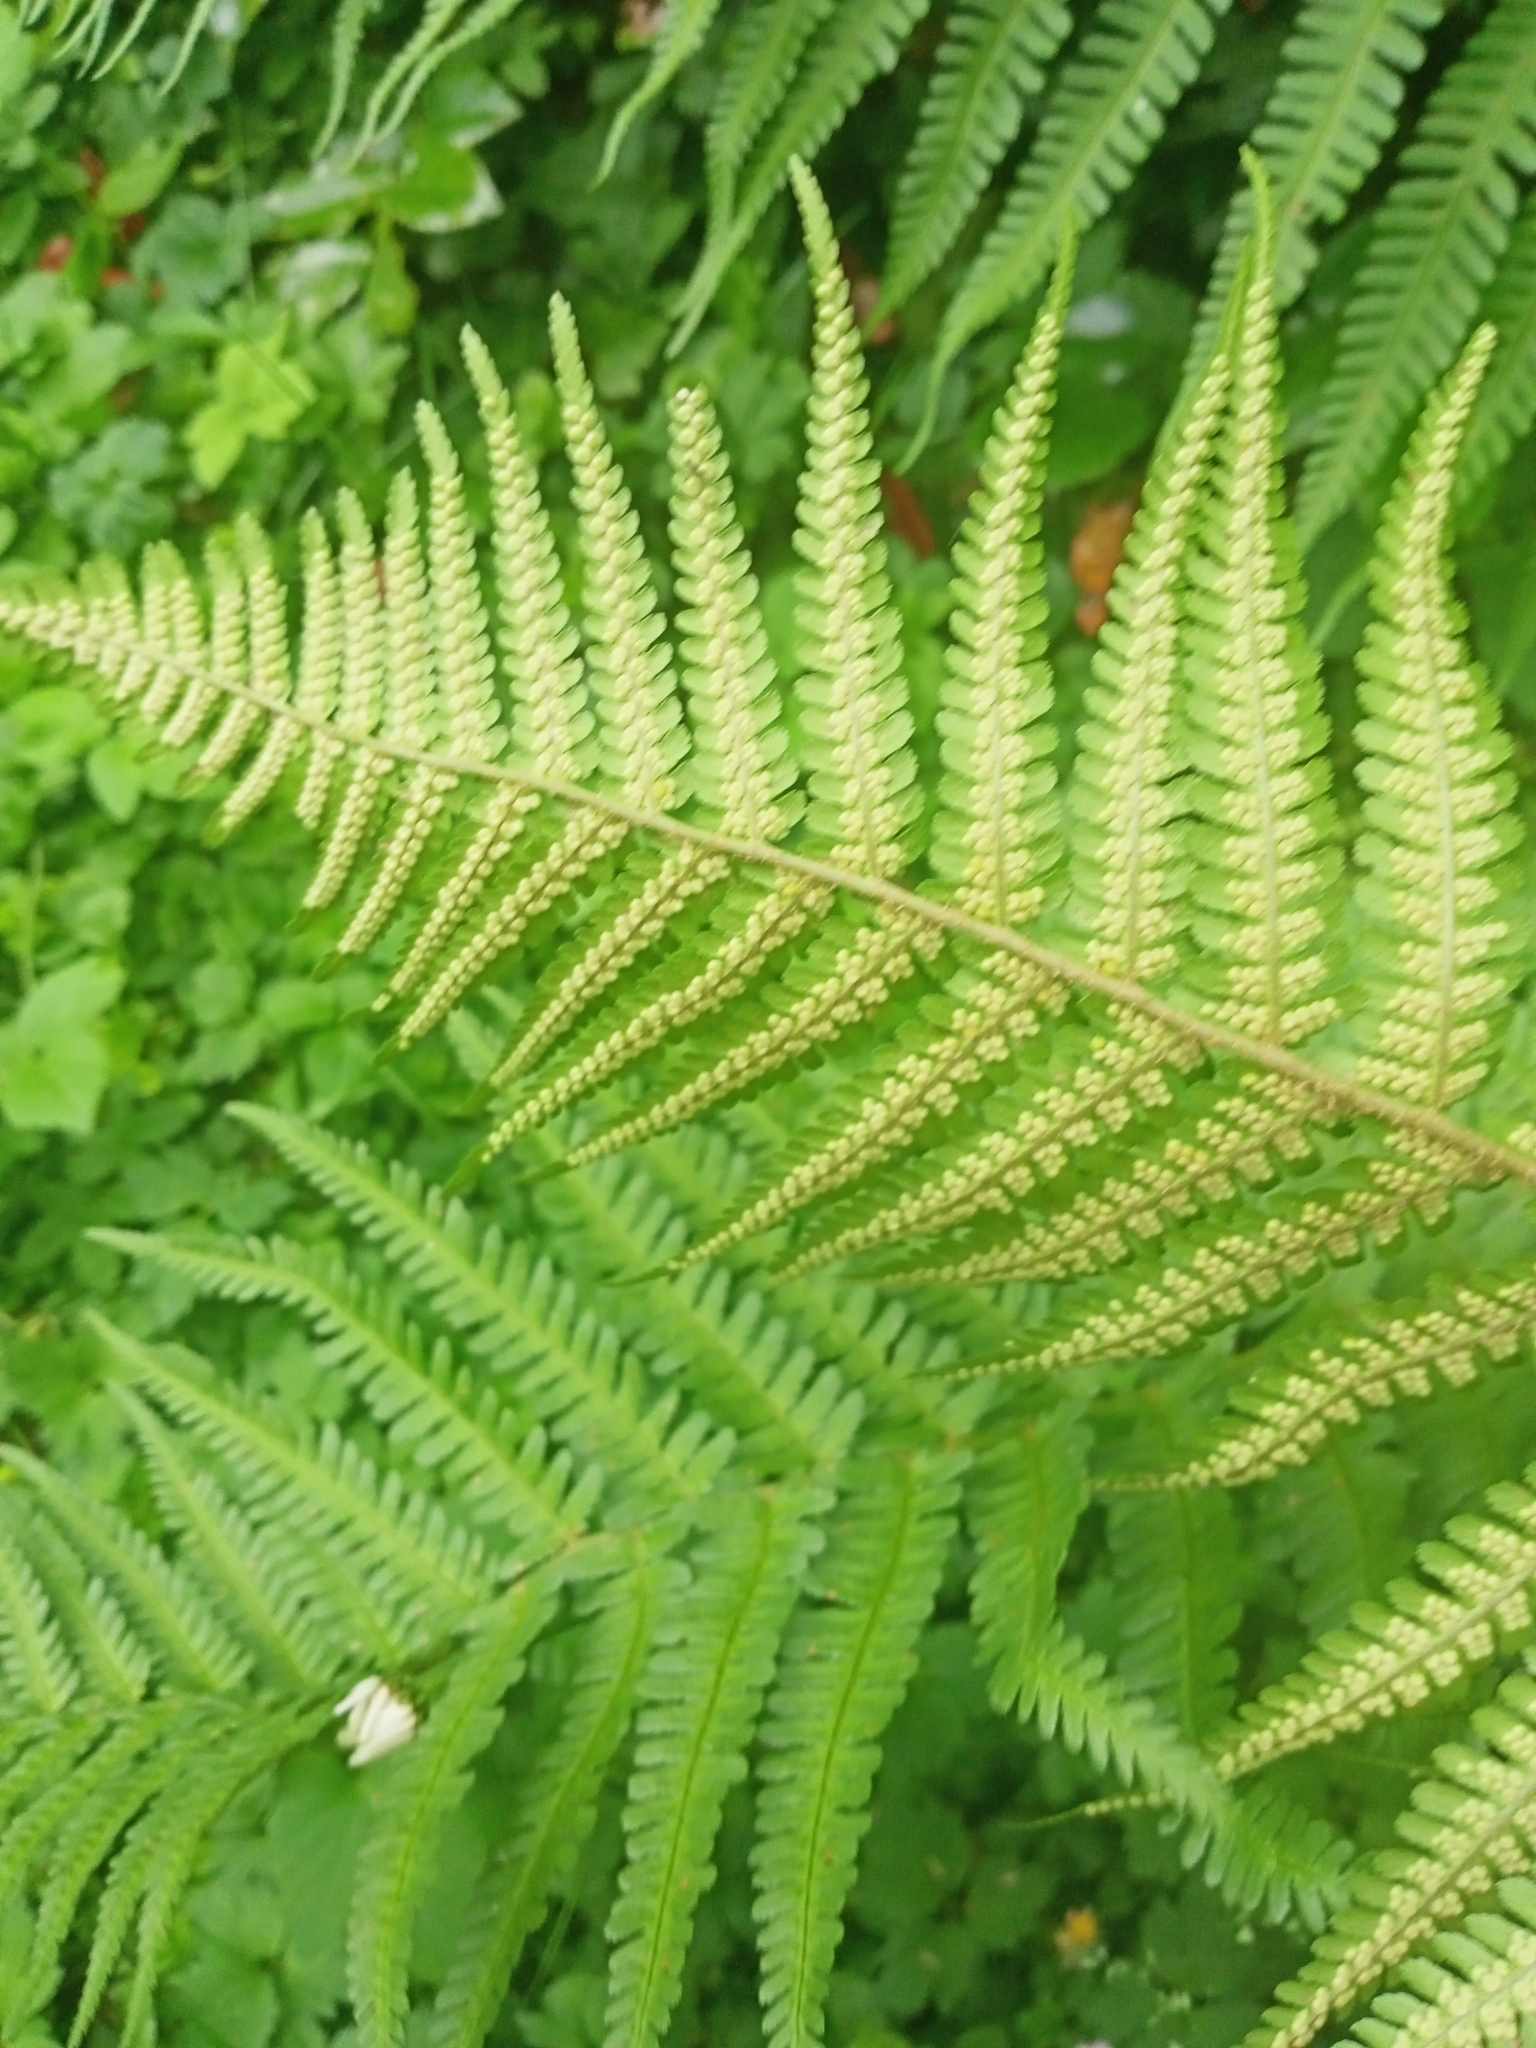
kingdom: Plantae
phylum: Tracheophyta
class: Polypodiopsida
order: Polypodiales
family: Dryopteridaceae
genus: Dryopteris
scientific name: Dryopteris filix-mas
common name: Male fern
